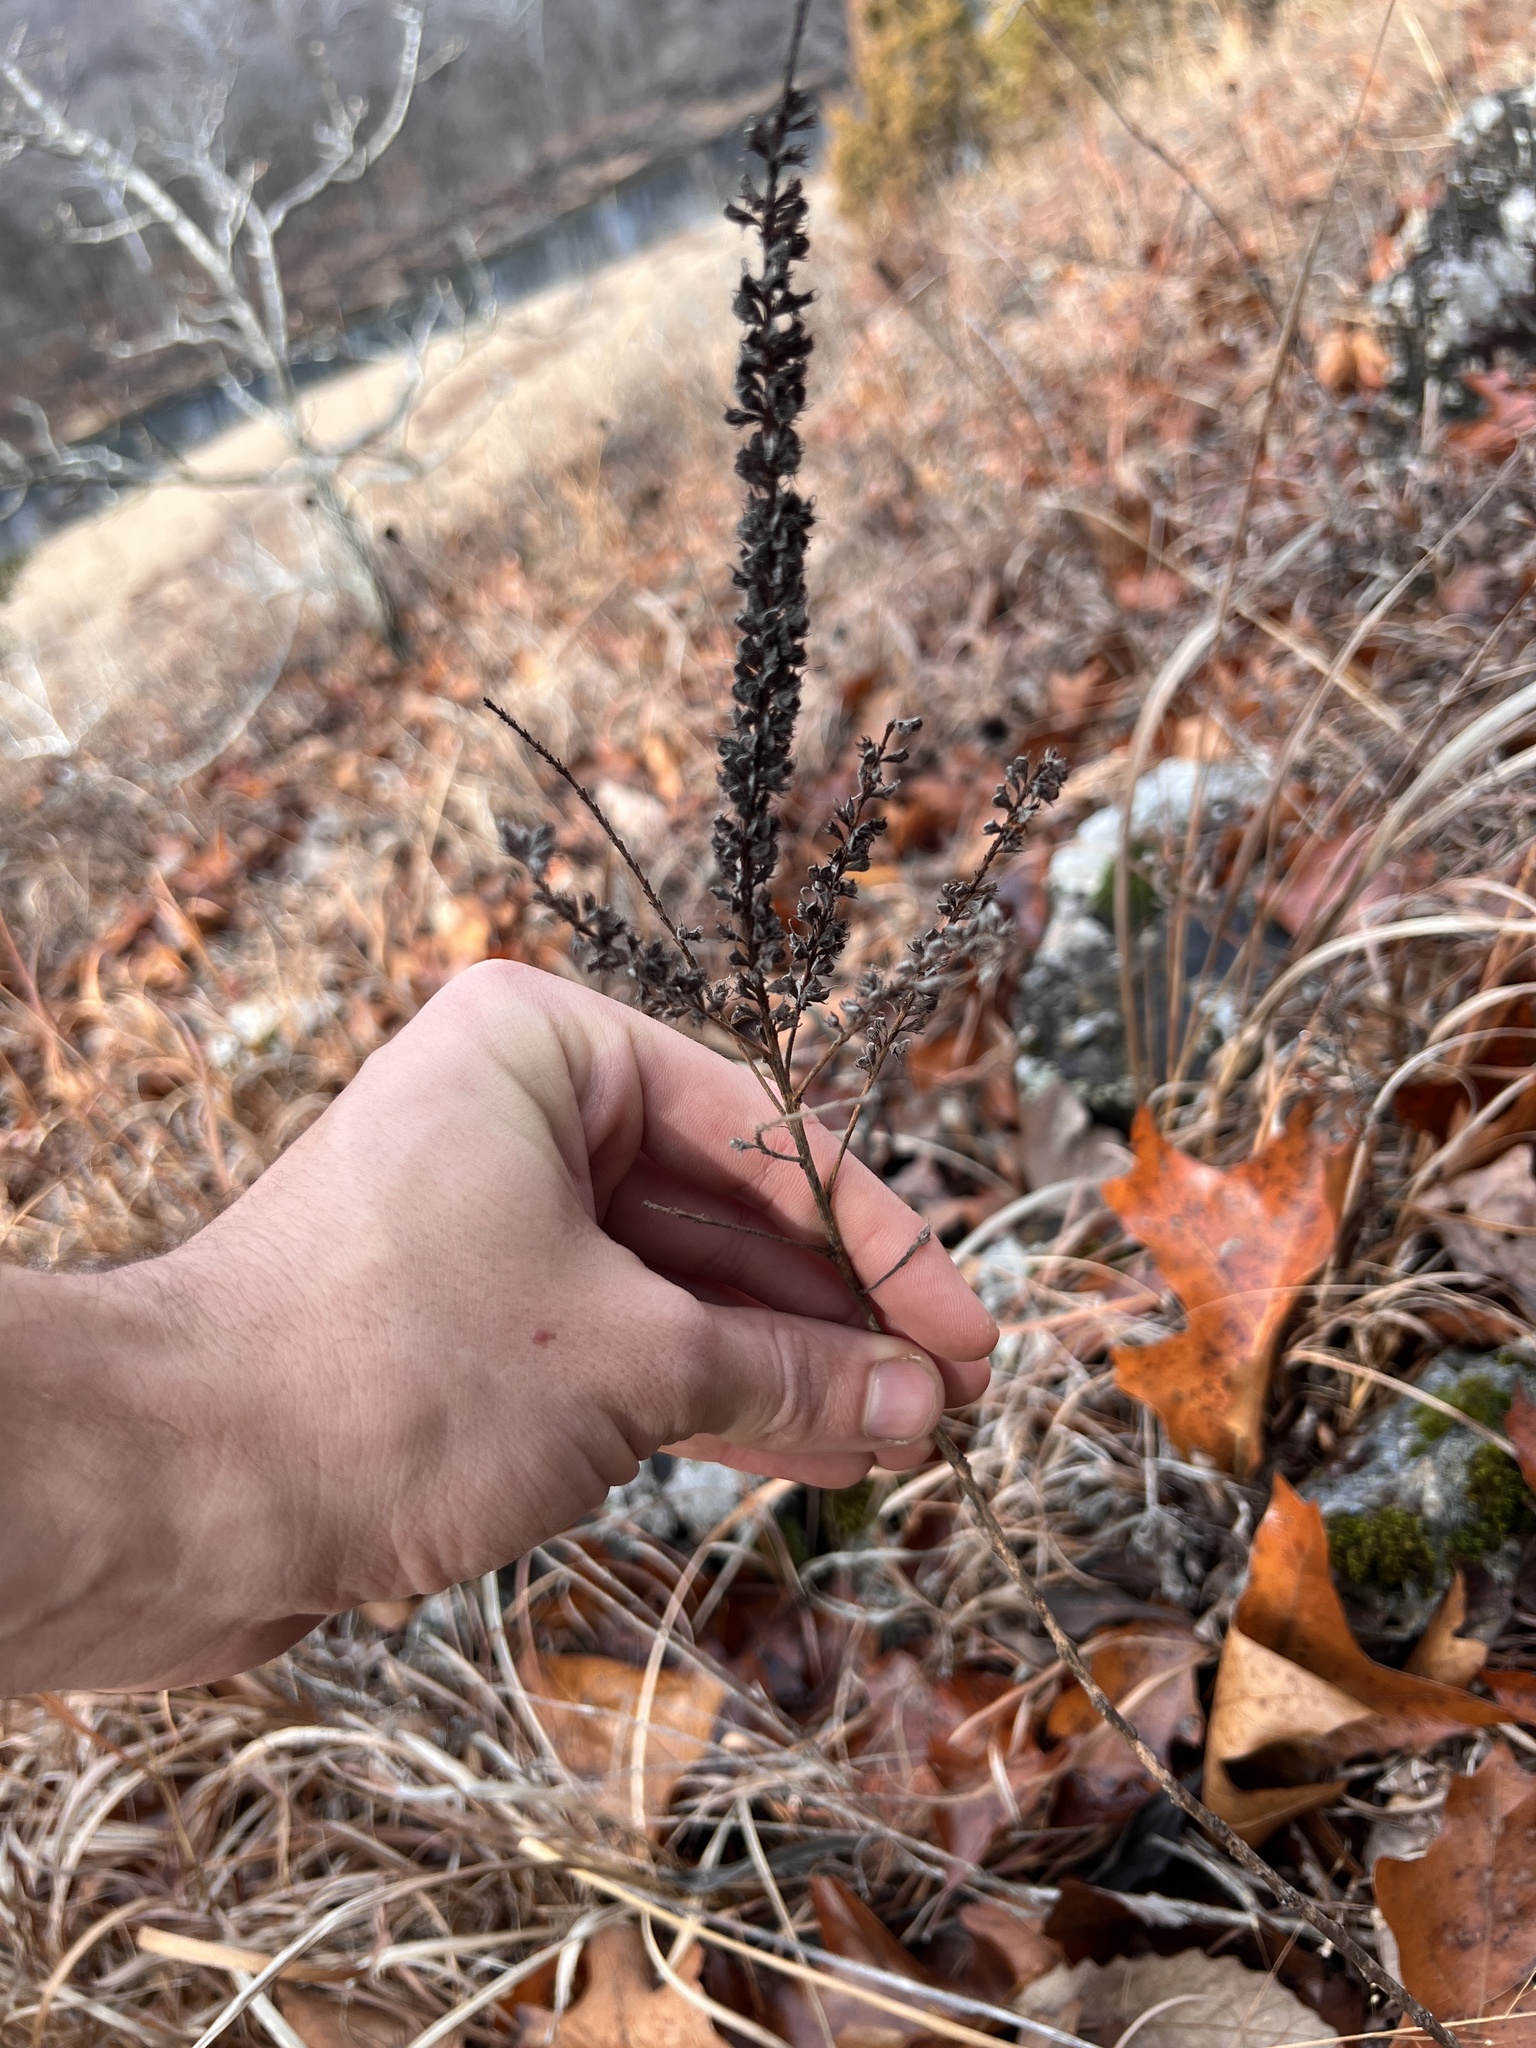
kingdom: Plantae
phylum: Tracheophyta
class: Magnoliopsida
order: Fabales
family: Fabaceae
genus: Amorpha
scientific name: Amorpha canescens
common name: Leadplant
